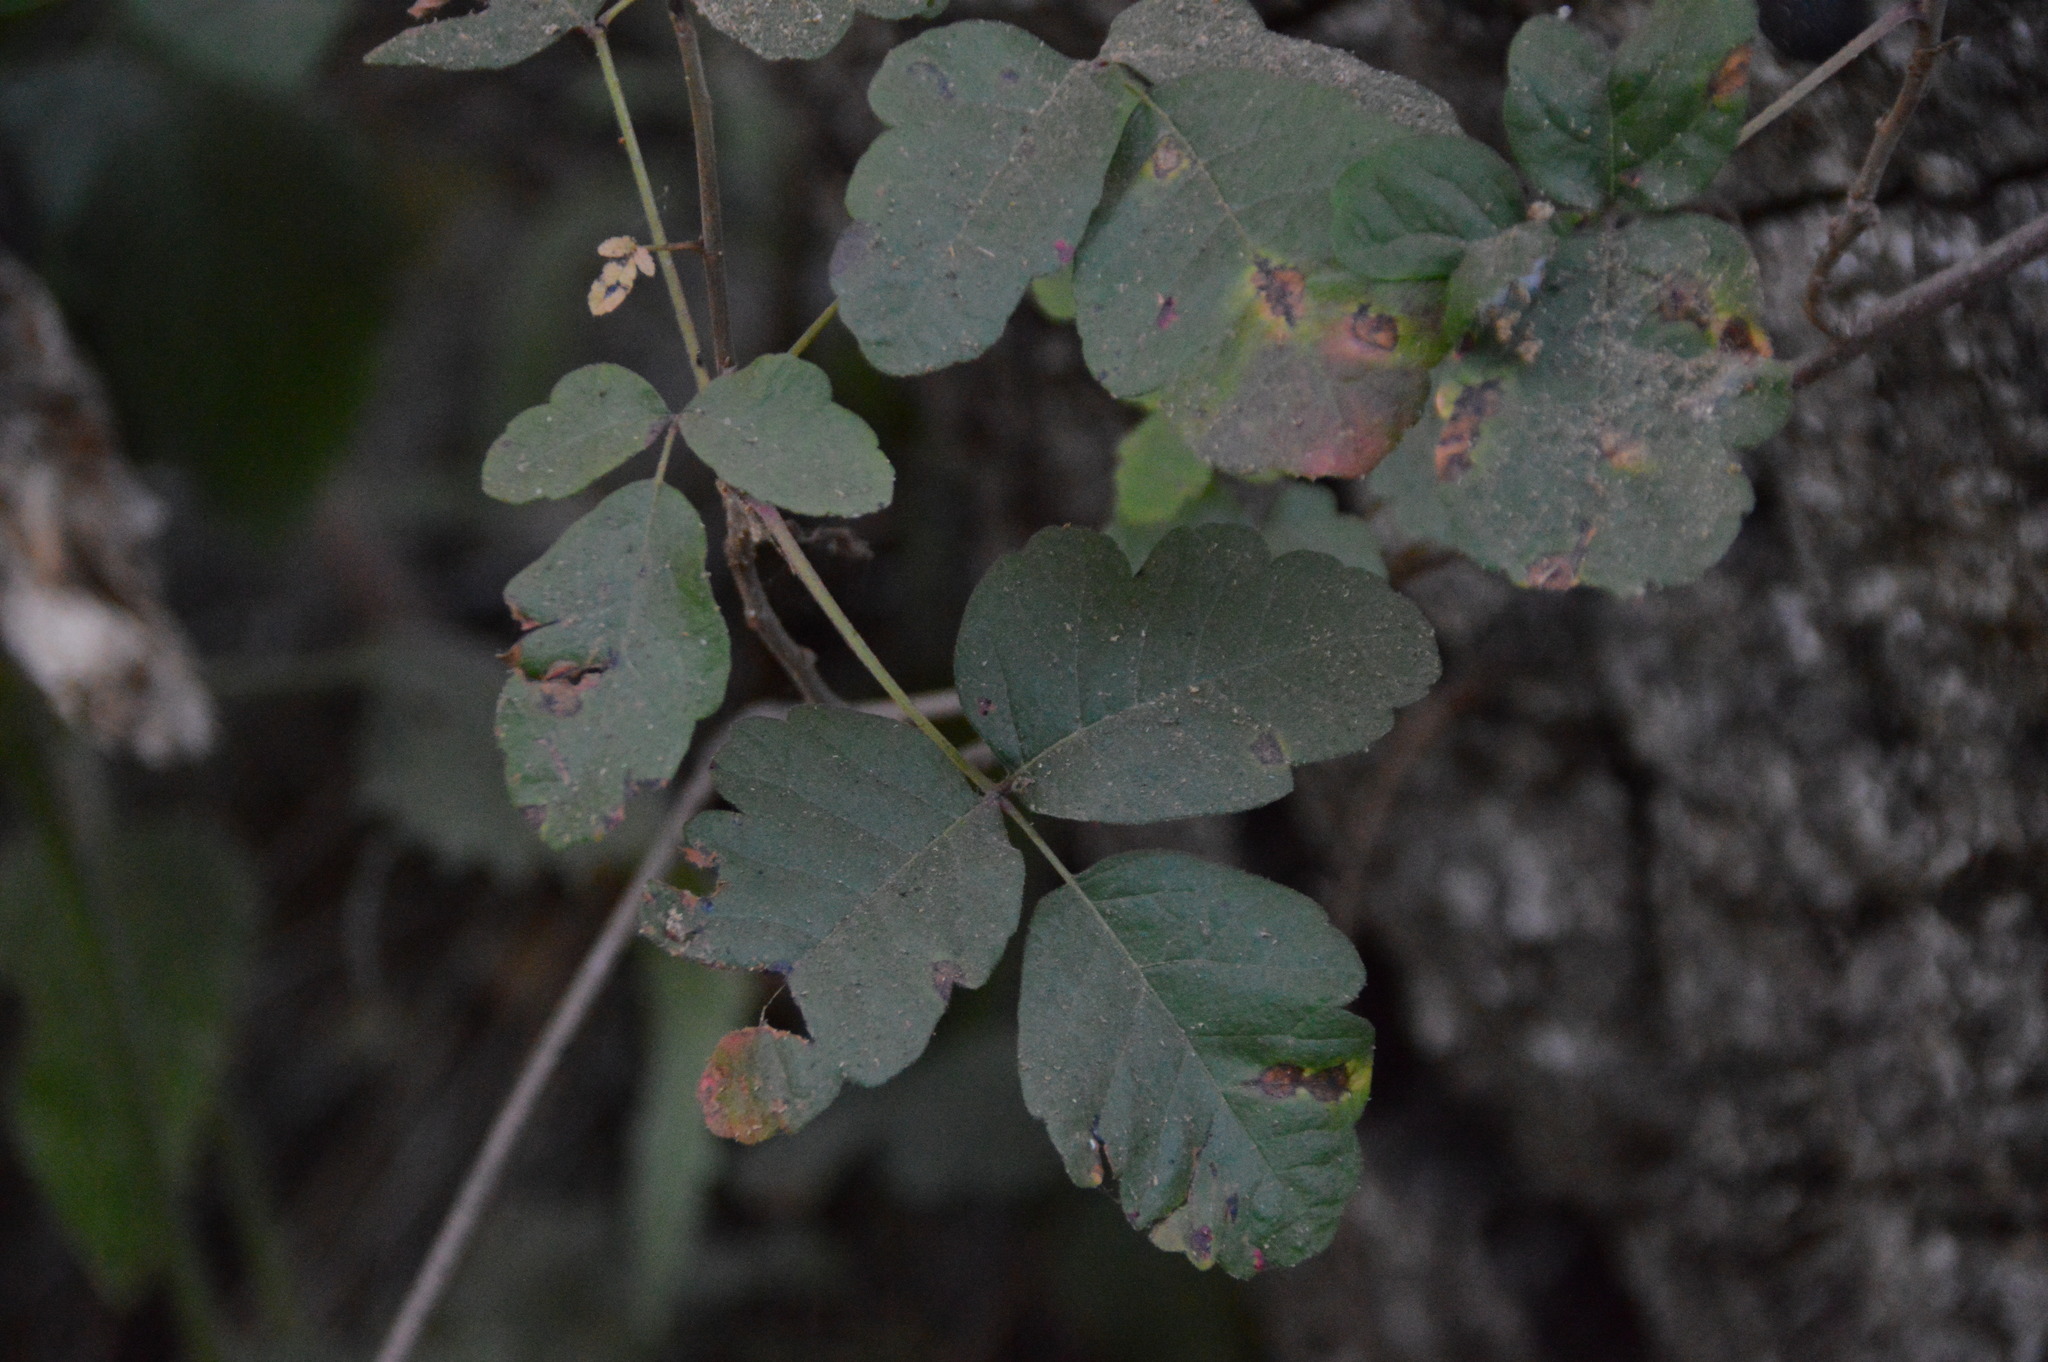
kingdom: Plantae
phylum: Tracheophyta
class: Magnoliopsida
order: Sapindales
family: Anacardiaceae
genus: Toxicodendron
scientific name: Toxicodendron diversilobum
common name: Pacific poison-oak
